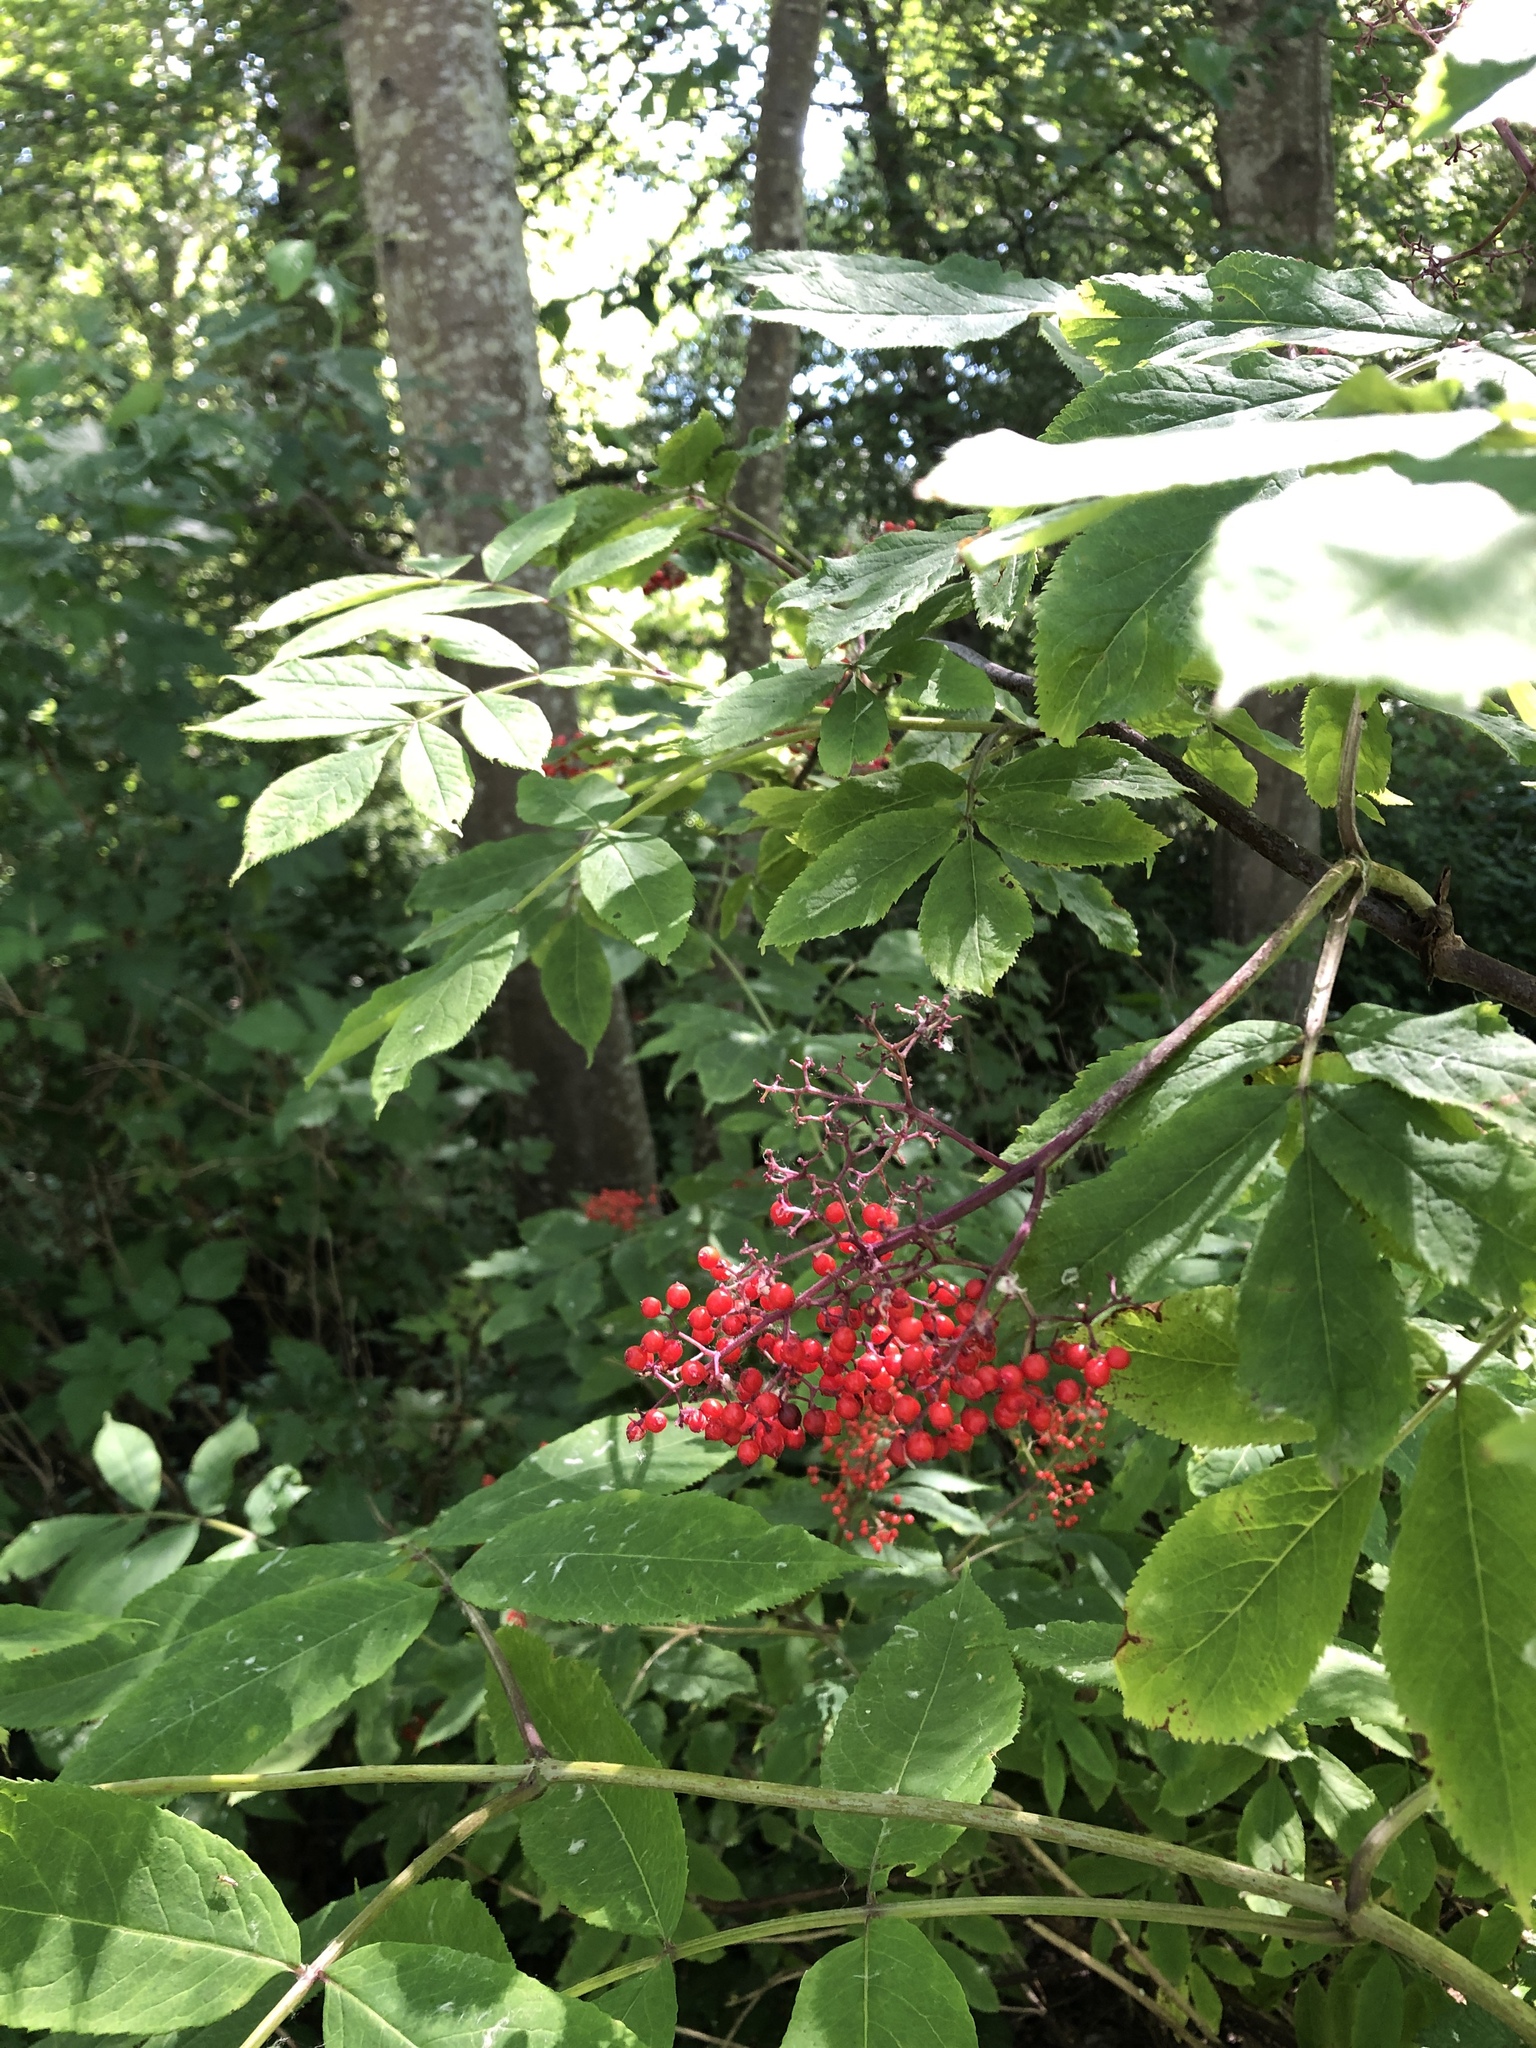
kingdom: Plantae
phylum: Tracheophyta
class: Magnoliopsida
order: Dipsacales
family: Viburnaceae
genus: Sambucus
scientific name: Sambucus racemosa
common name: Red-berried elder
